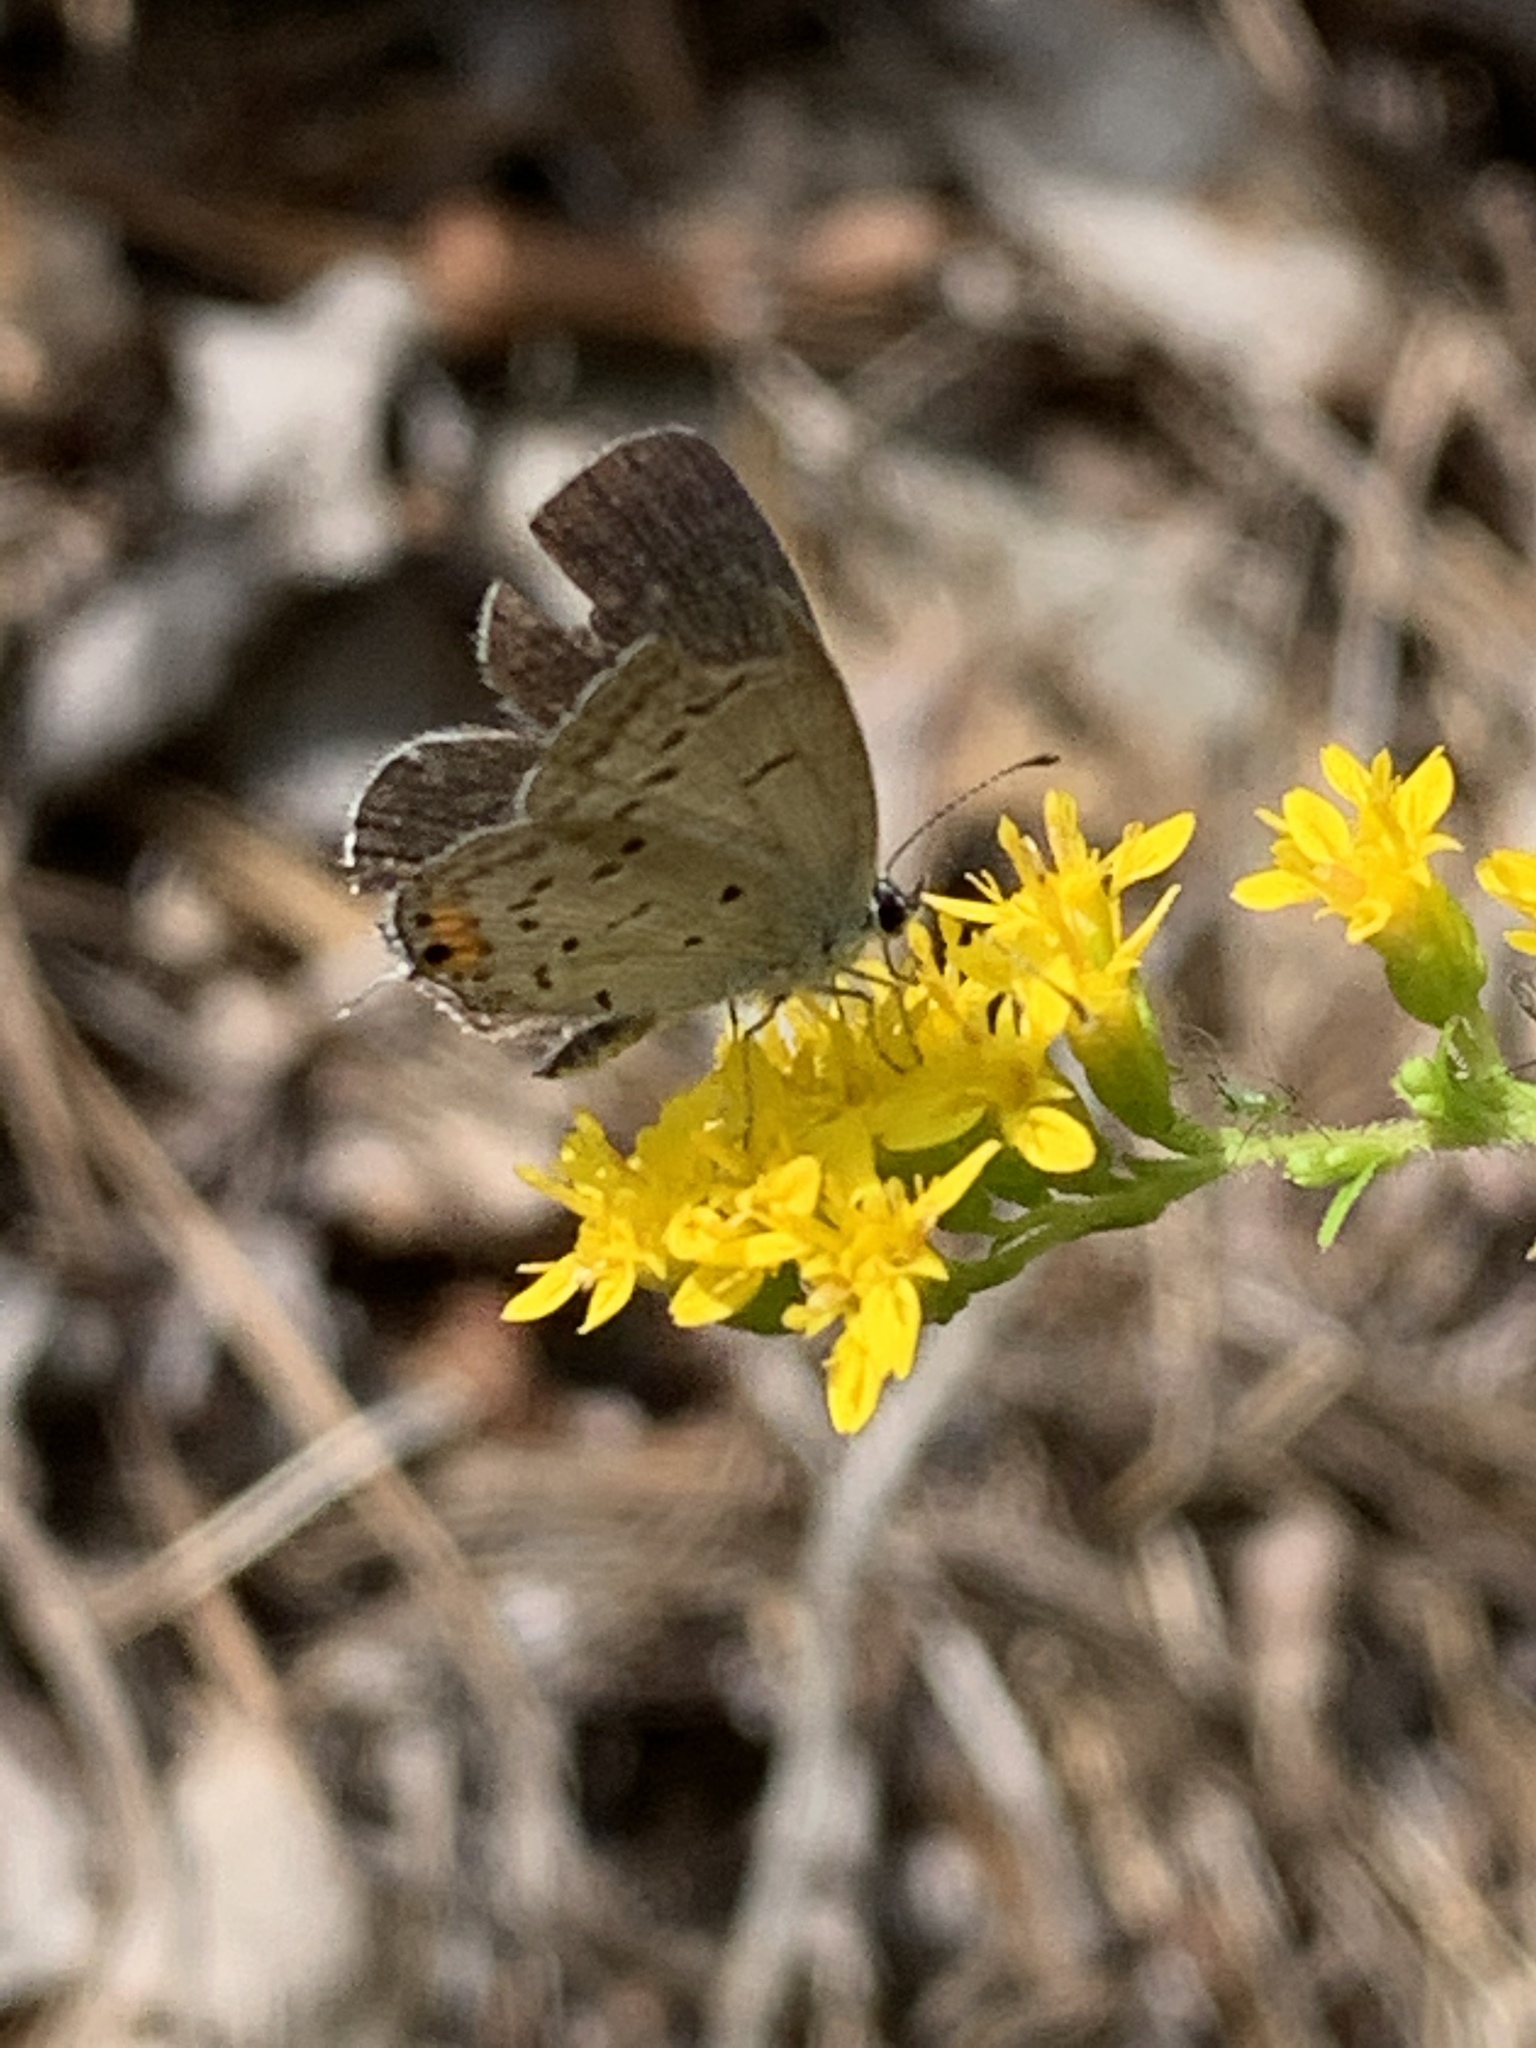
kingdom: Animalia
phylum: Arthropoda
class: Insecta
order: Lepidoptera
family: Lycaenidae
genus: Elkalyce
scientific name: Elkalyce comyntas
